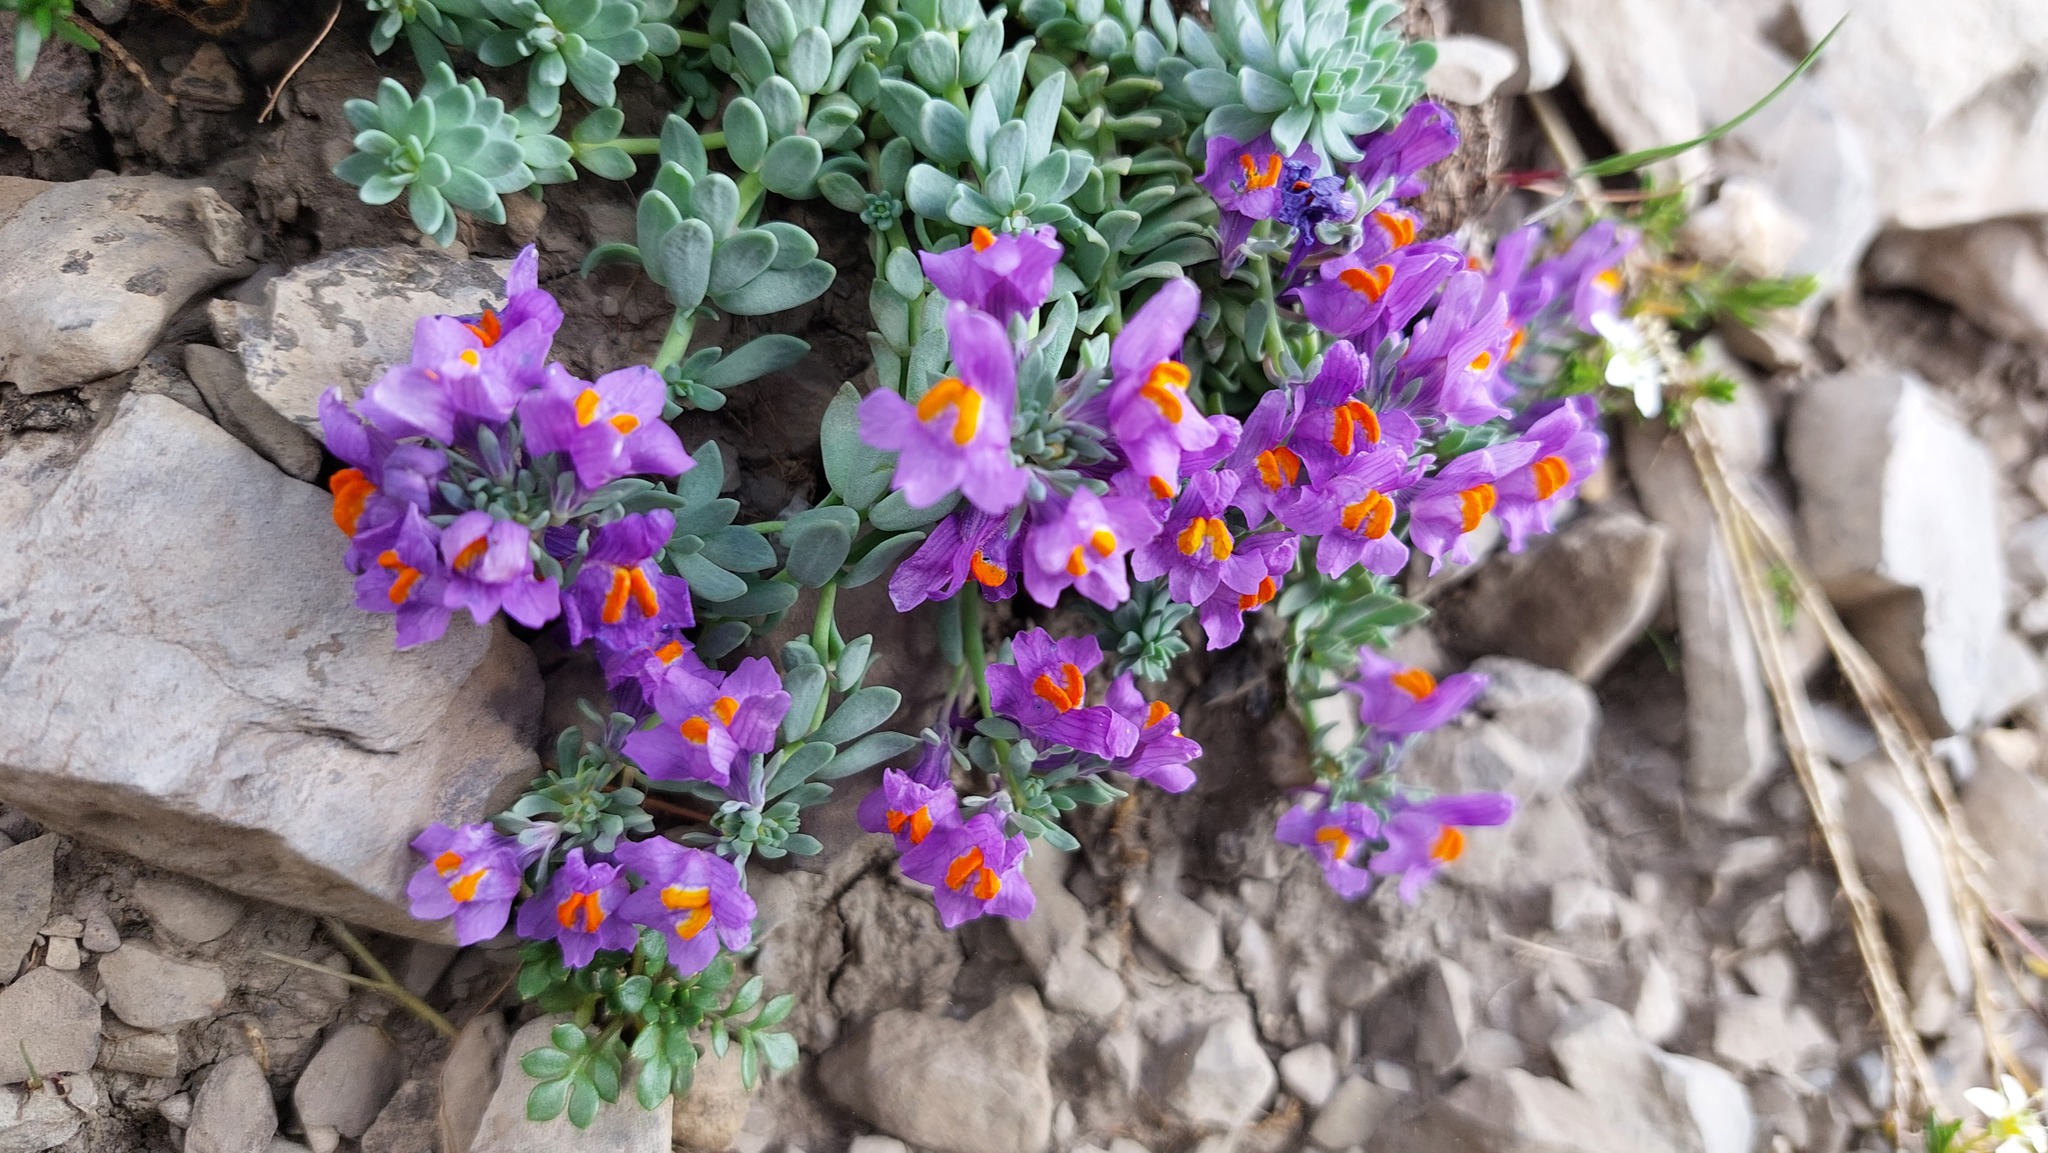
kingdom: Plantae
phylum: Tracheophyta
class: Magnoliopsida
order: Lamiales
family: Plantaginaceae
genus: Linaria
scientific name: Linaria alpina
